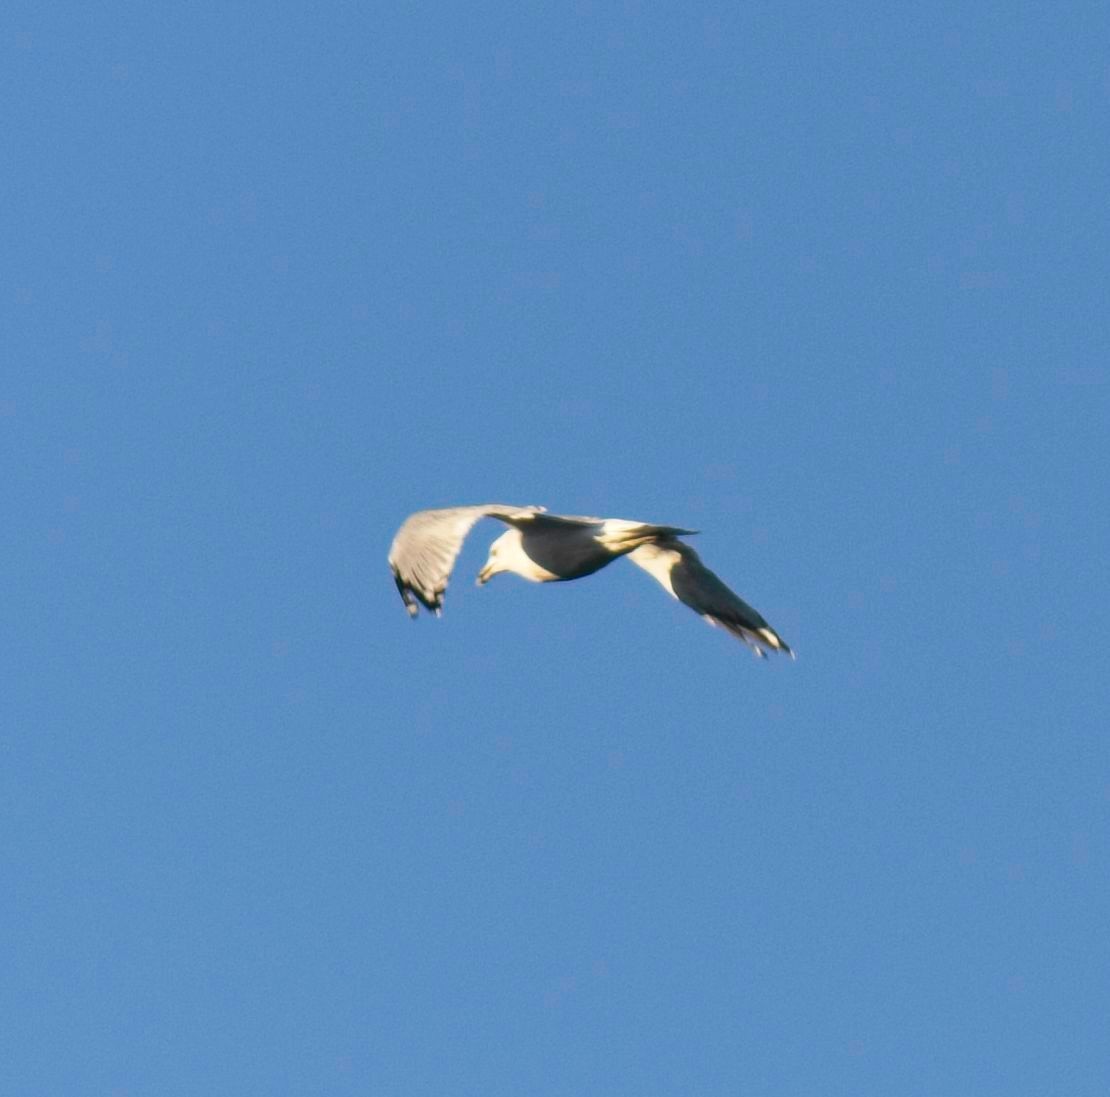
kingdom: Animalia
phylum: Chordata
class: Aves
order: Charadriiformes
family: Laridae
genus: Larus
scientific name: Larus delawarensis
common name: Ring-billed gull
